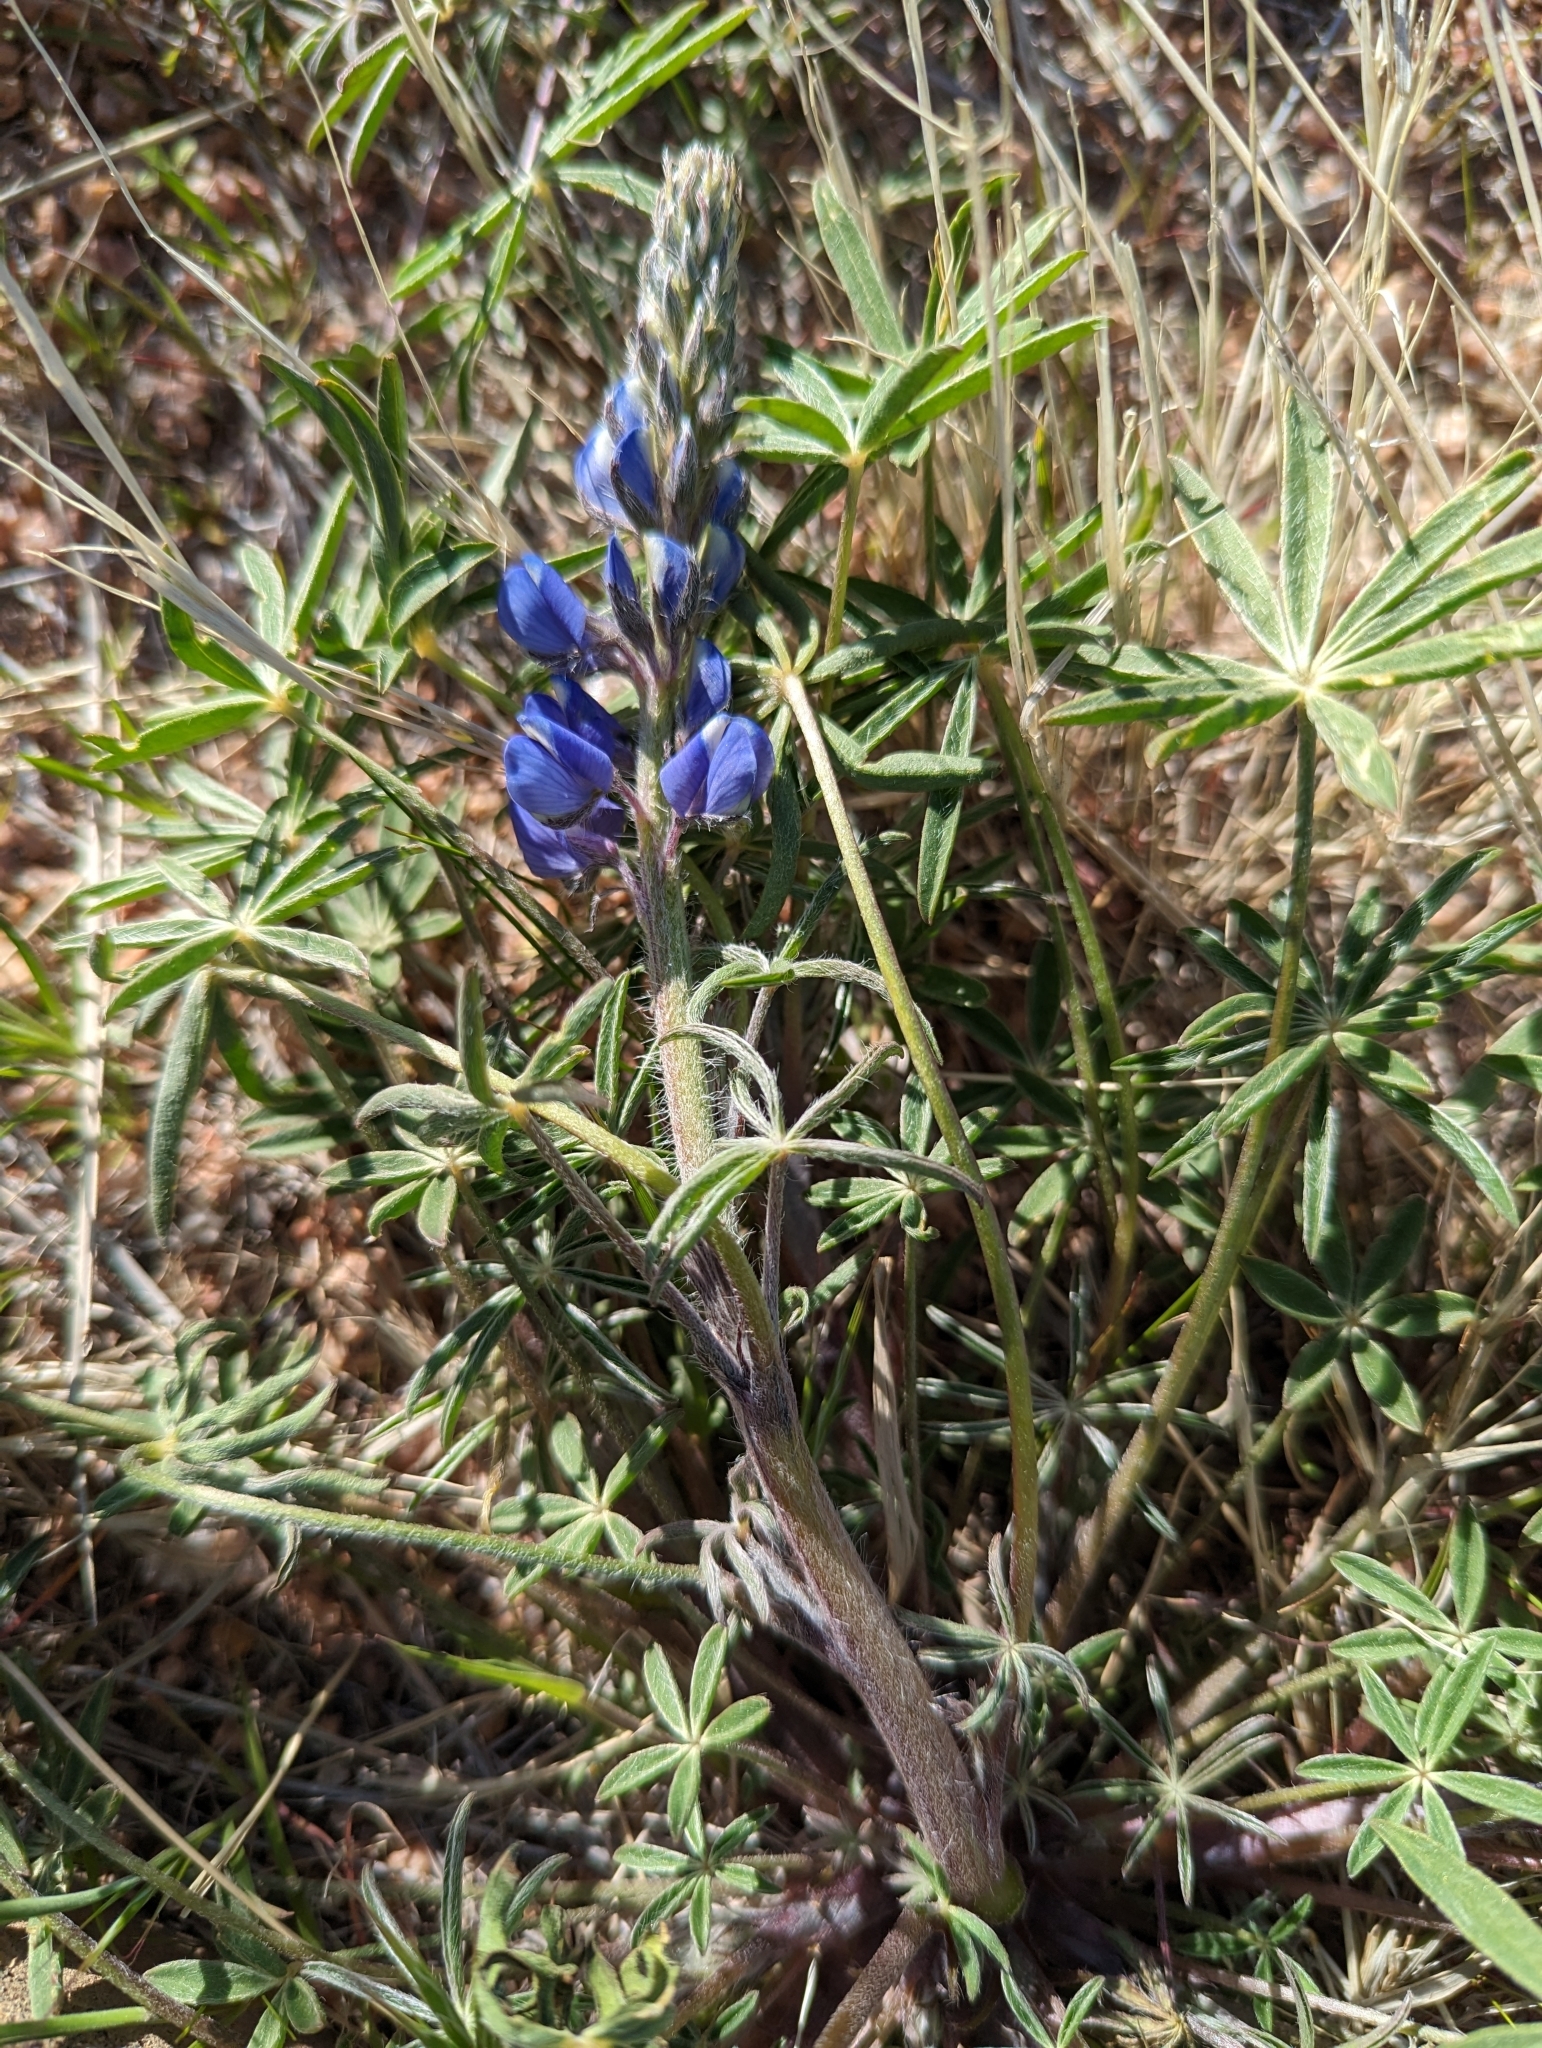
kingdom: Plantae
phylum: Tracheophyta
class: Magnoliopsida
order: Fabales
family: Fabaceae
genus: Lupinus
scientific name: Lupinus sparsiflorus
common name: Coulter's lupine
